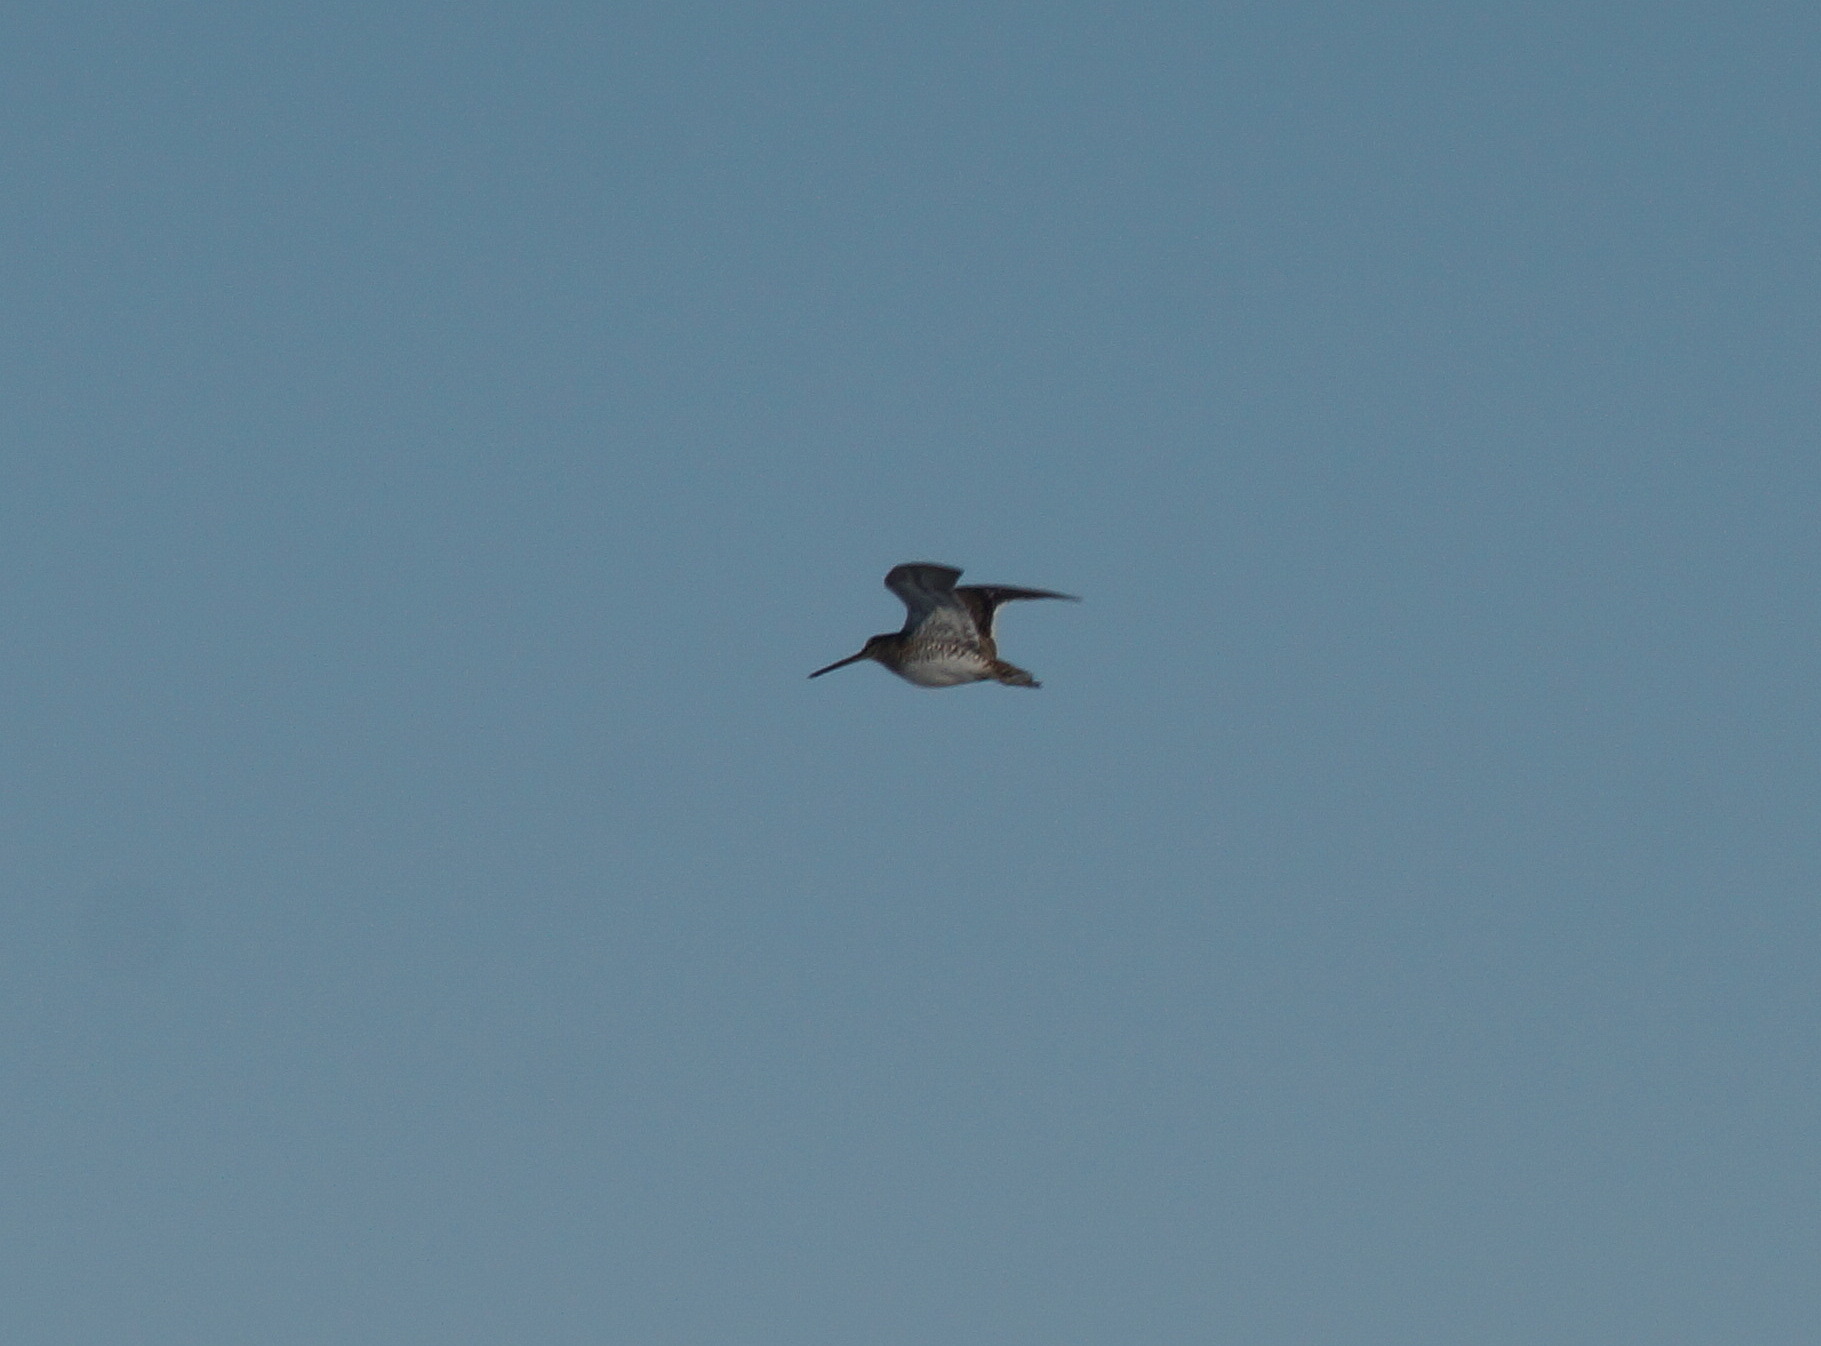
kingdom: Animalia
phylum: Chordata
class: Aves
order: Charadriiformes
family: Scolopacidae
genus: Gallinago
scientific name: Gallinago gallinago
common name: Common snipe
